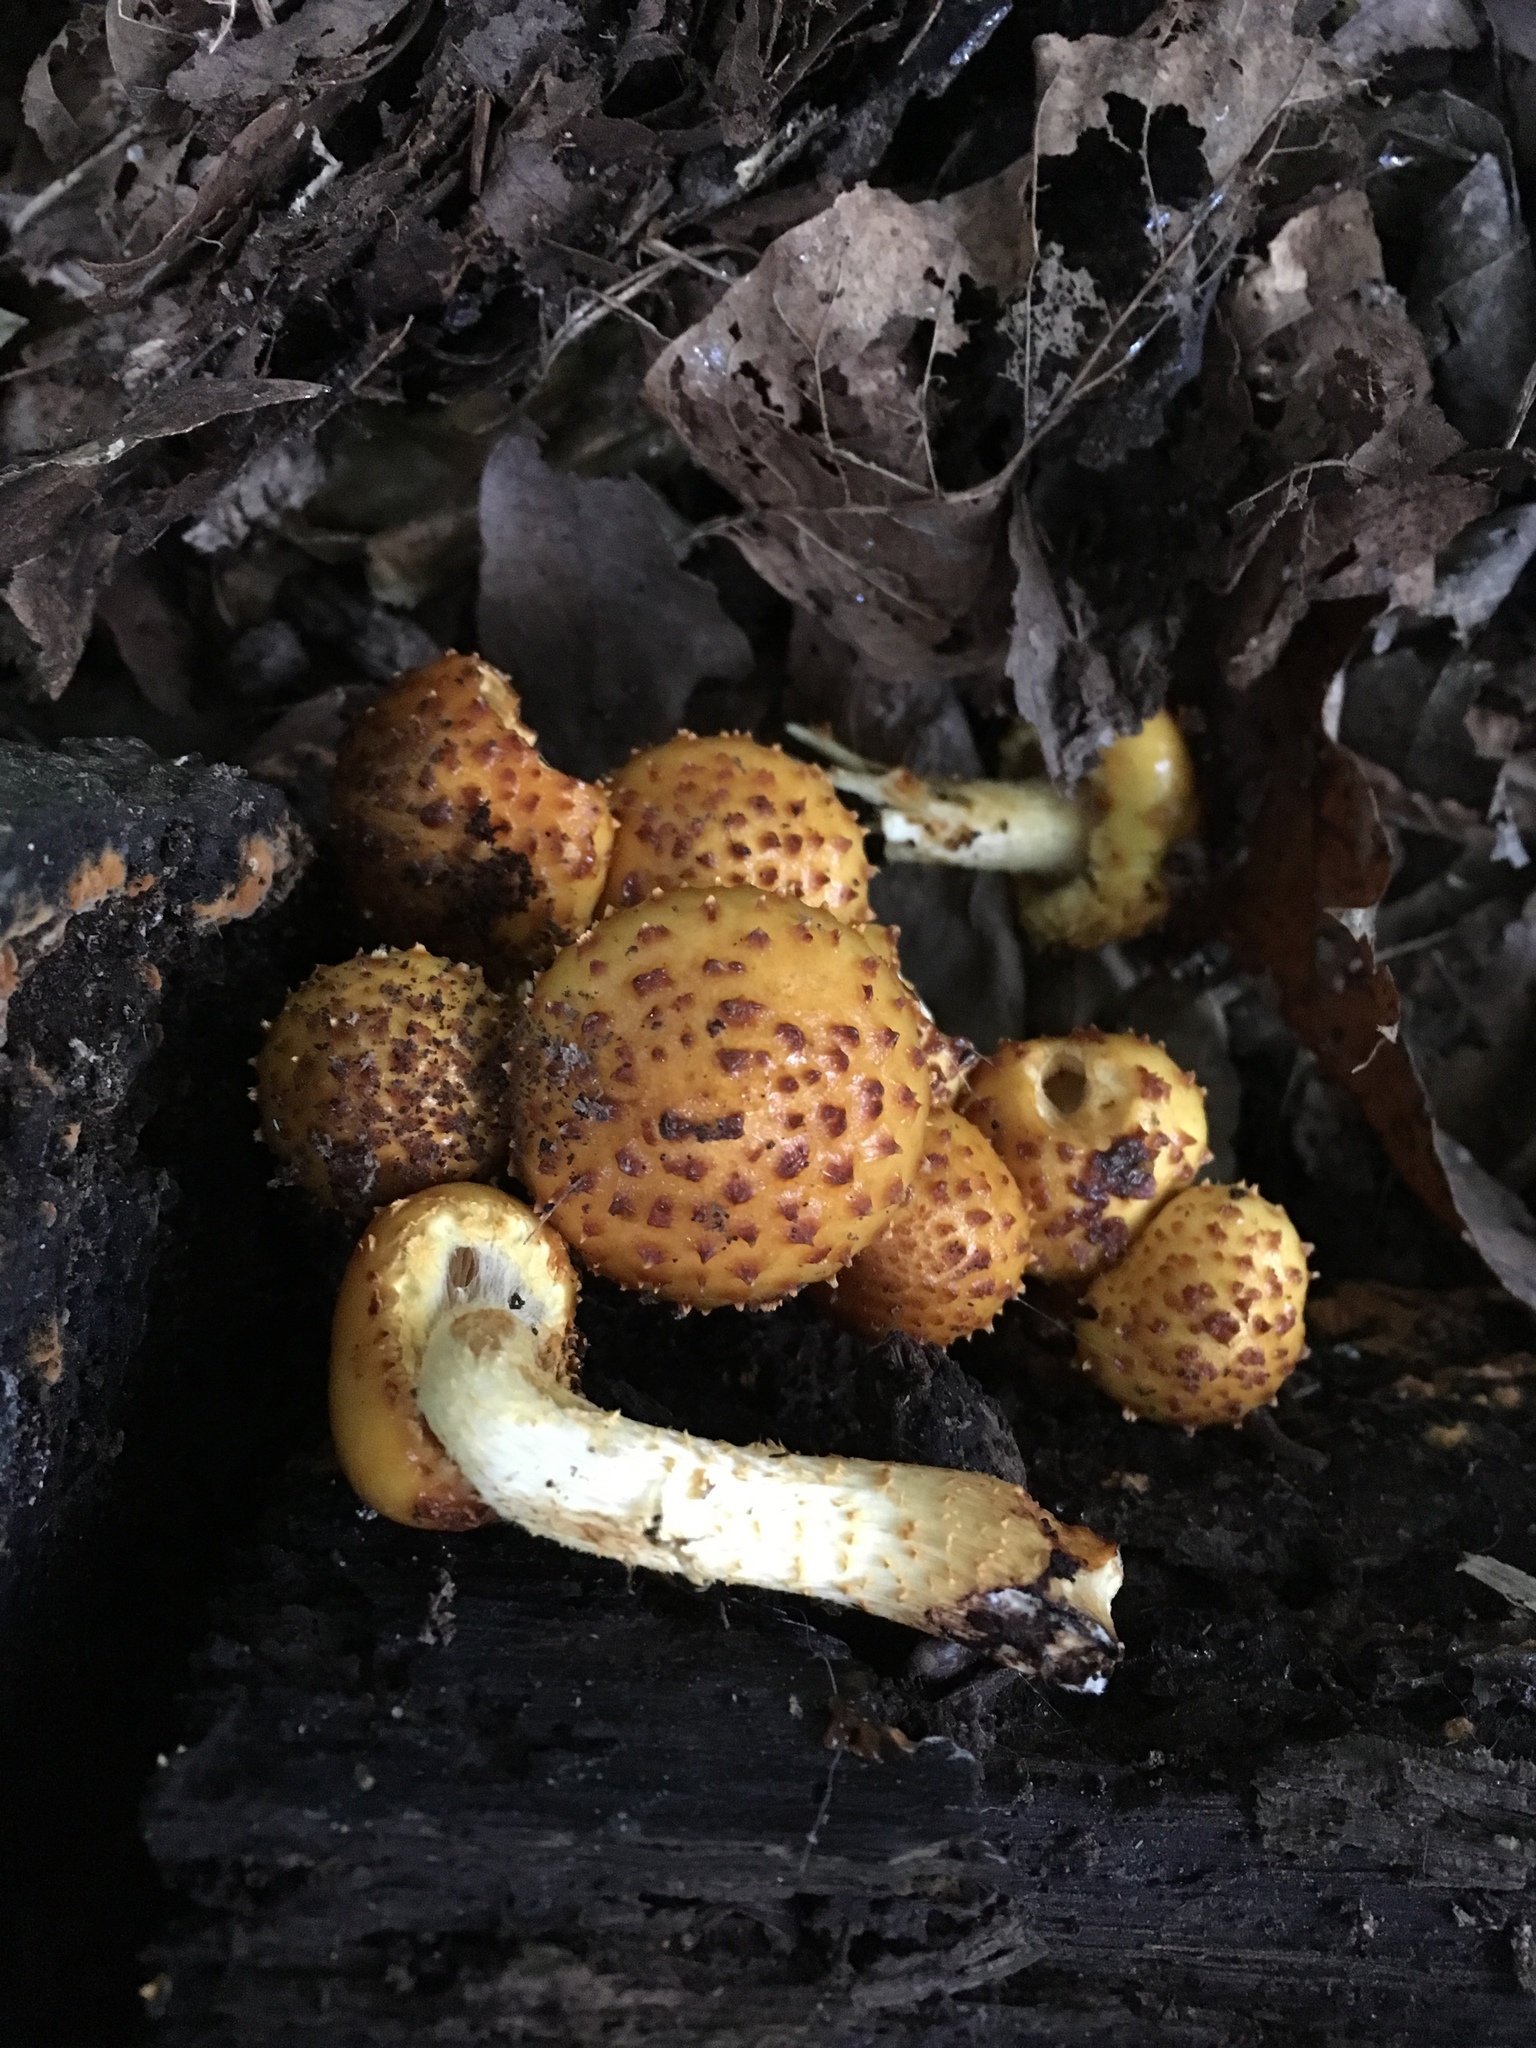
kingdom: Fungi
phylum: Basidiomycota
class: Agaricomycetes
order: Agaricales
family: Strophariaceae
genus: Pholiota
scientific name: Pholiota aurivella
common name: Golden scalycap
